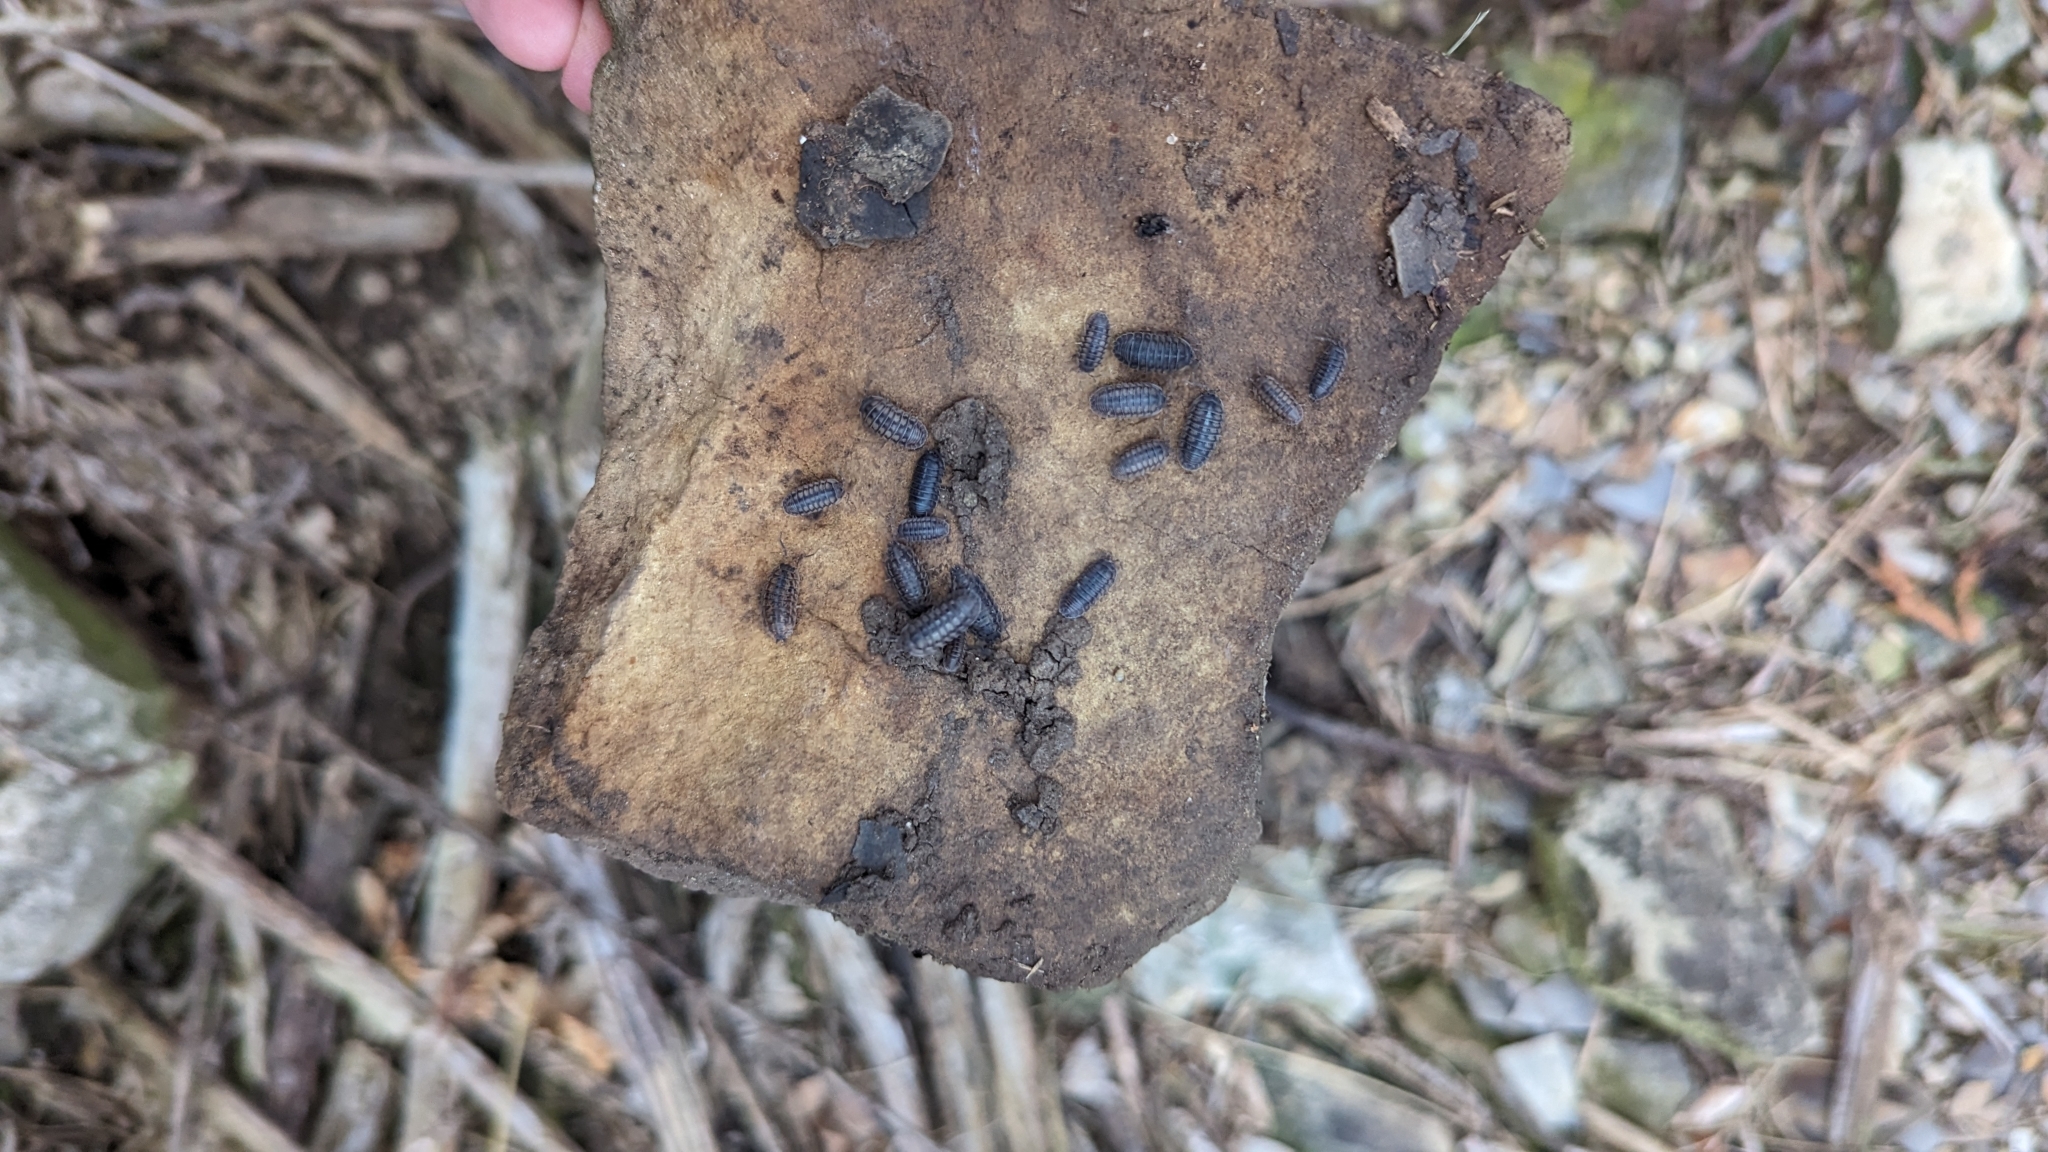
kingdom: Animalia
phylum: Arthropoda
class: Malacostraca
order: Isopoda
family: Armadillidiidae
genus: Armadillidium
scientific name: Armadillidium nasatum
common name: Isopod
